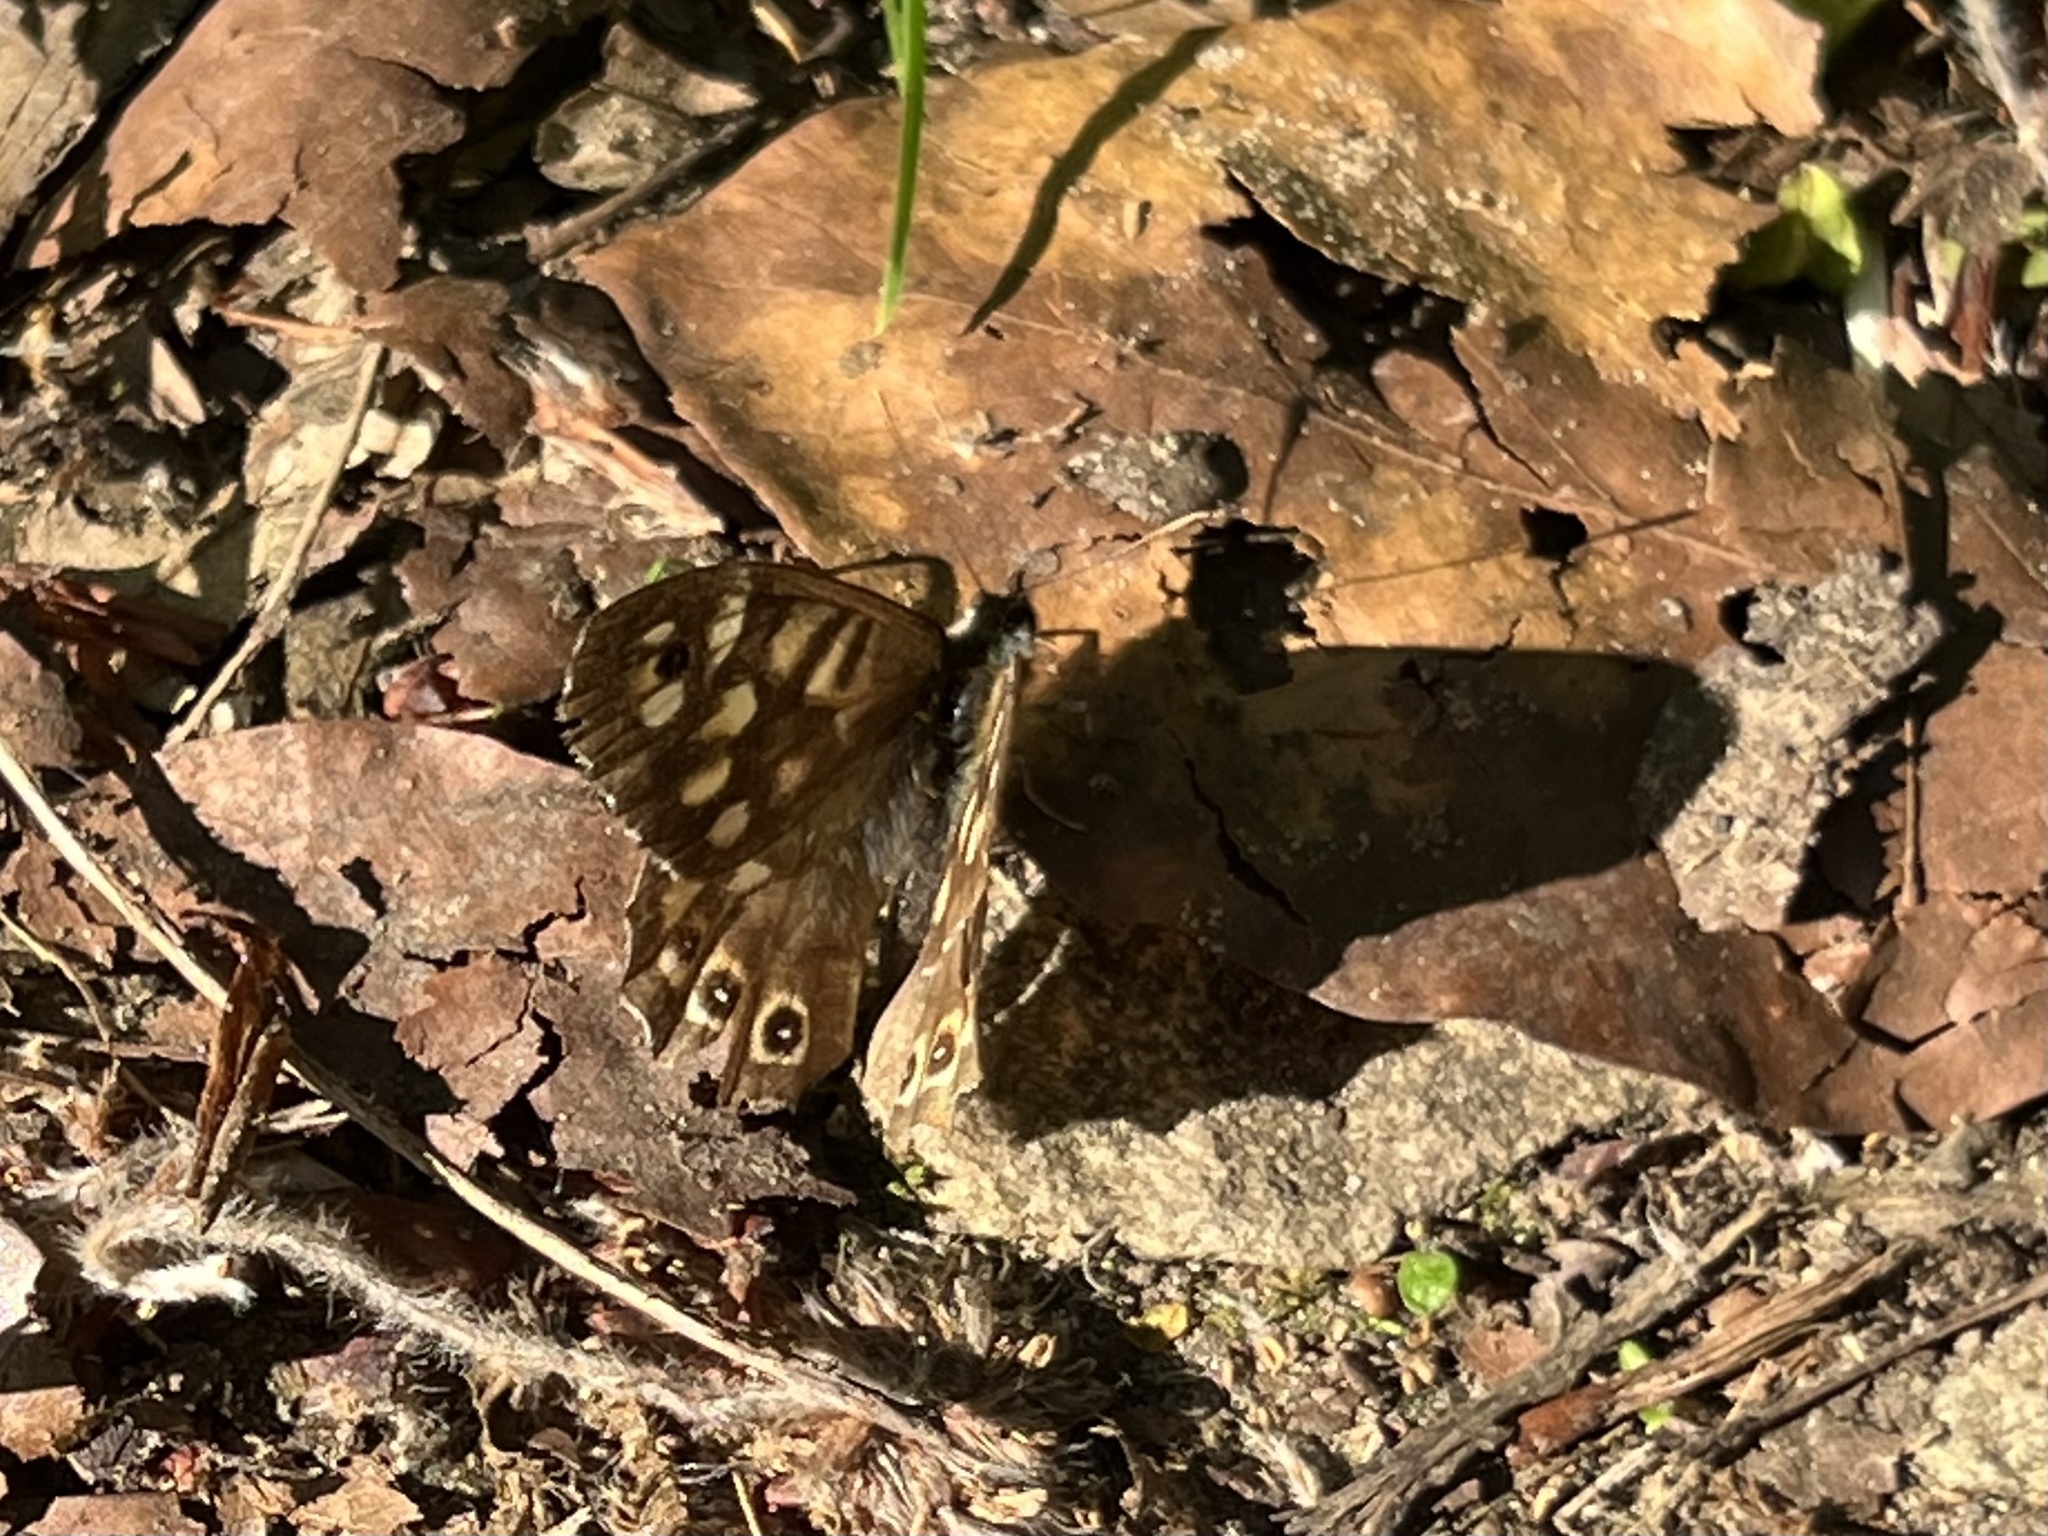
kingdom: Animalia
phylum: Arthropoda
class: Insecta
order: Lepidoptera
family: Nymphalidae
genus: Pararge
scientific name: Pararge aegeria
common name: Speckled wood
